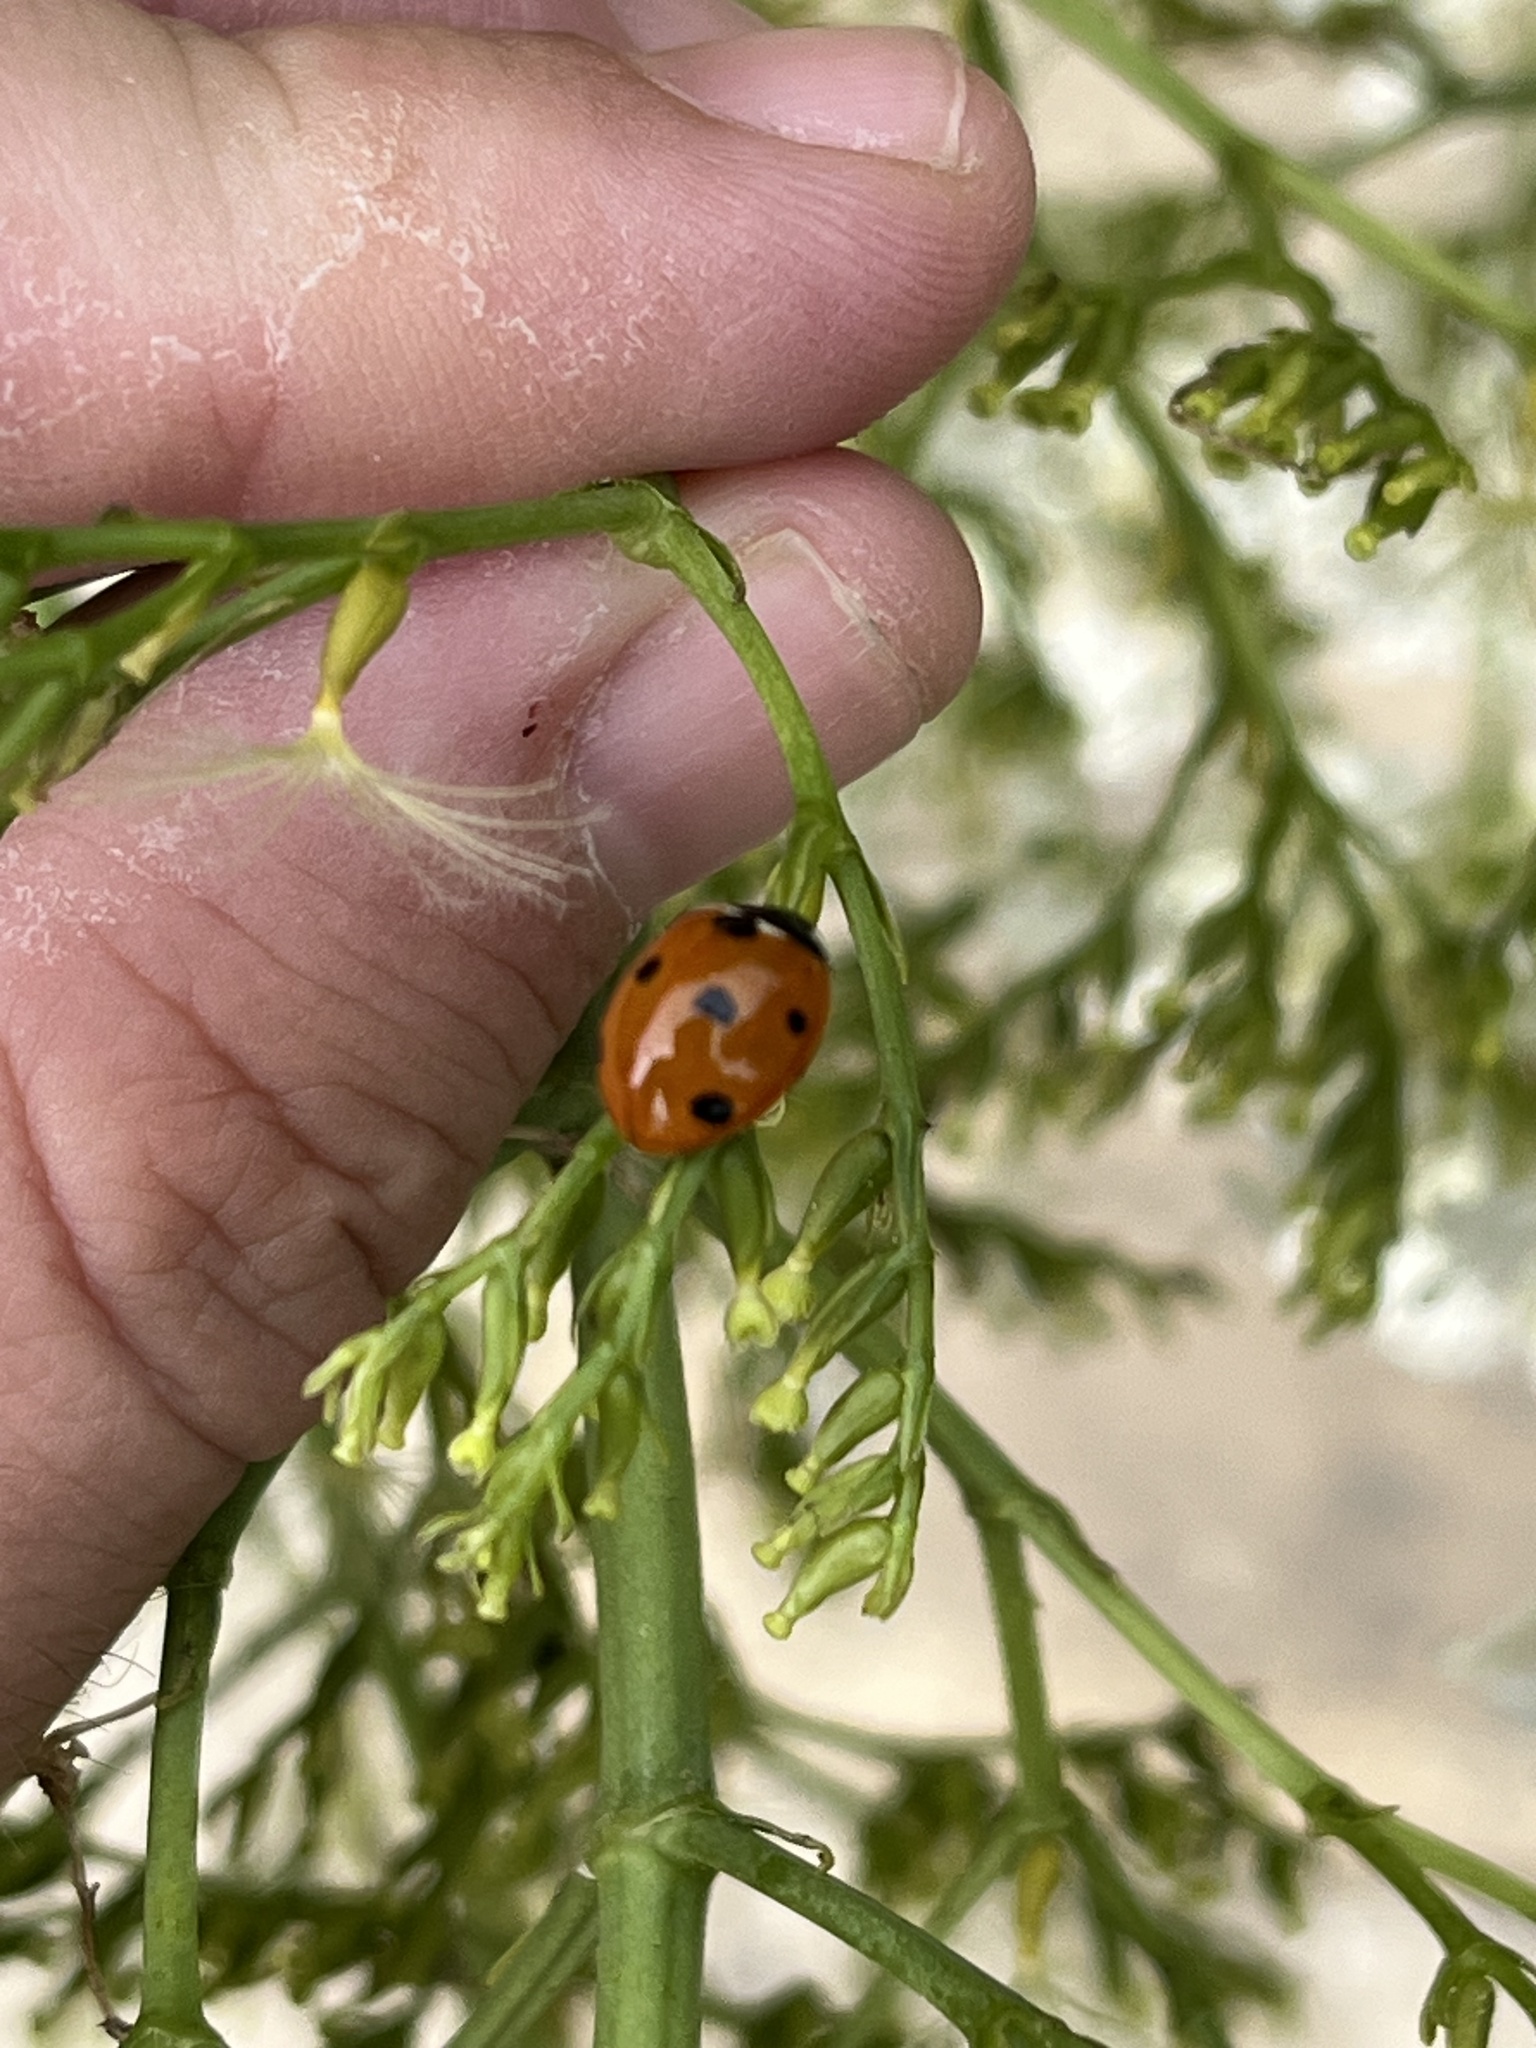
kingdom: Animalia
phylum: Arthropoda
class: Insecta
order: Coleoptera
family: Coccinellidae
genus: Coccinella
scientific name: Coccinella septempunctata
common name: Sevenspotted lady beetle
